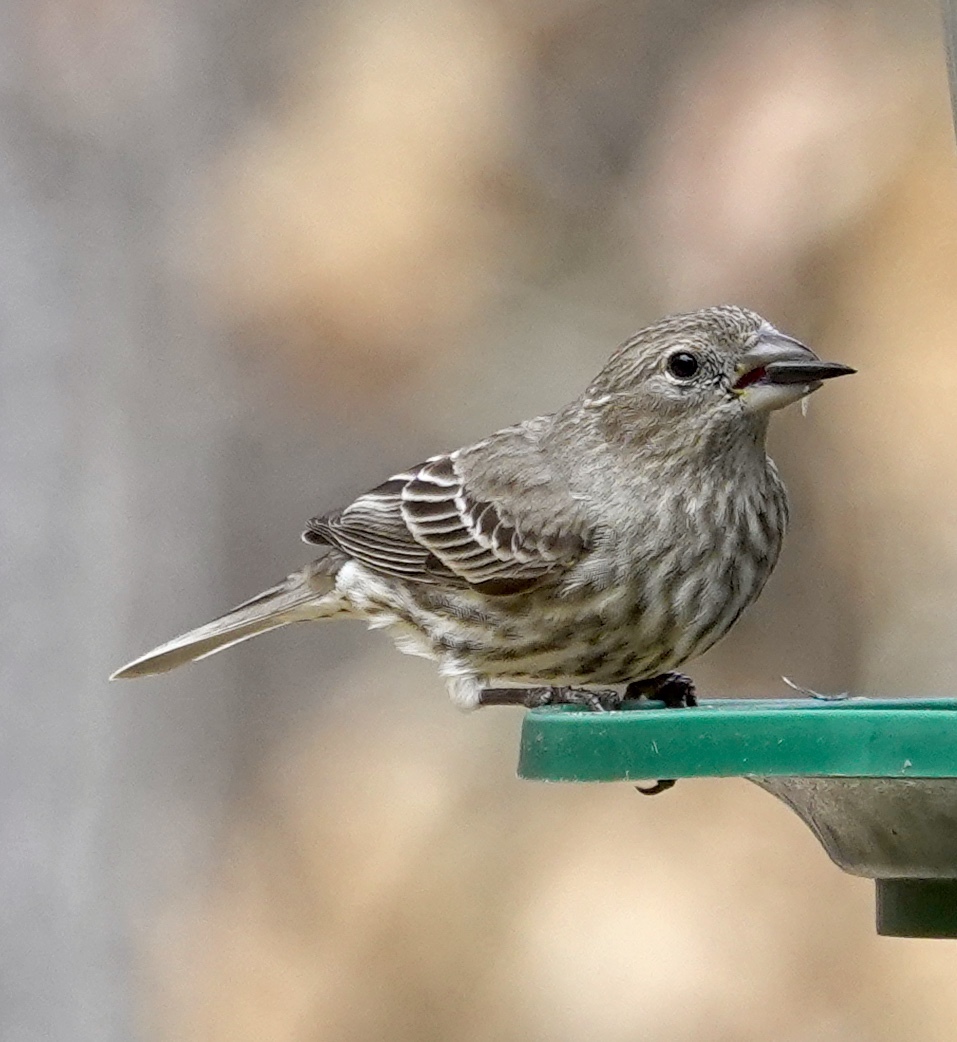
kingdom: Animalia
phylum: Chordata
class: Aves
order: Passeriformes
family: Fringillidae
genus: Haemorhous
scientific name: Haemorhous mexicanus
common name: House finch
